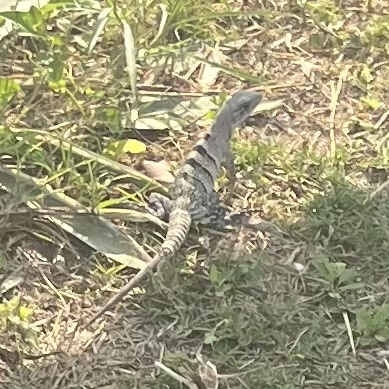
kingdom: Animalia
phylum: Chordata
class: Squamata
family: Iguanidae
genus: Ctenosaura
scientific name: Ctenosaura similis
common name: Black spiny-tailed iguana
